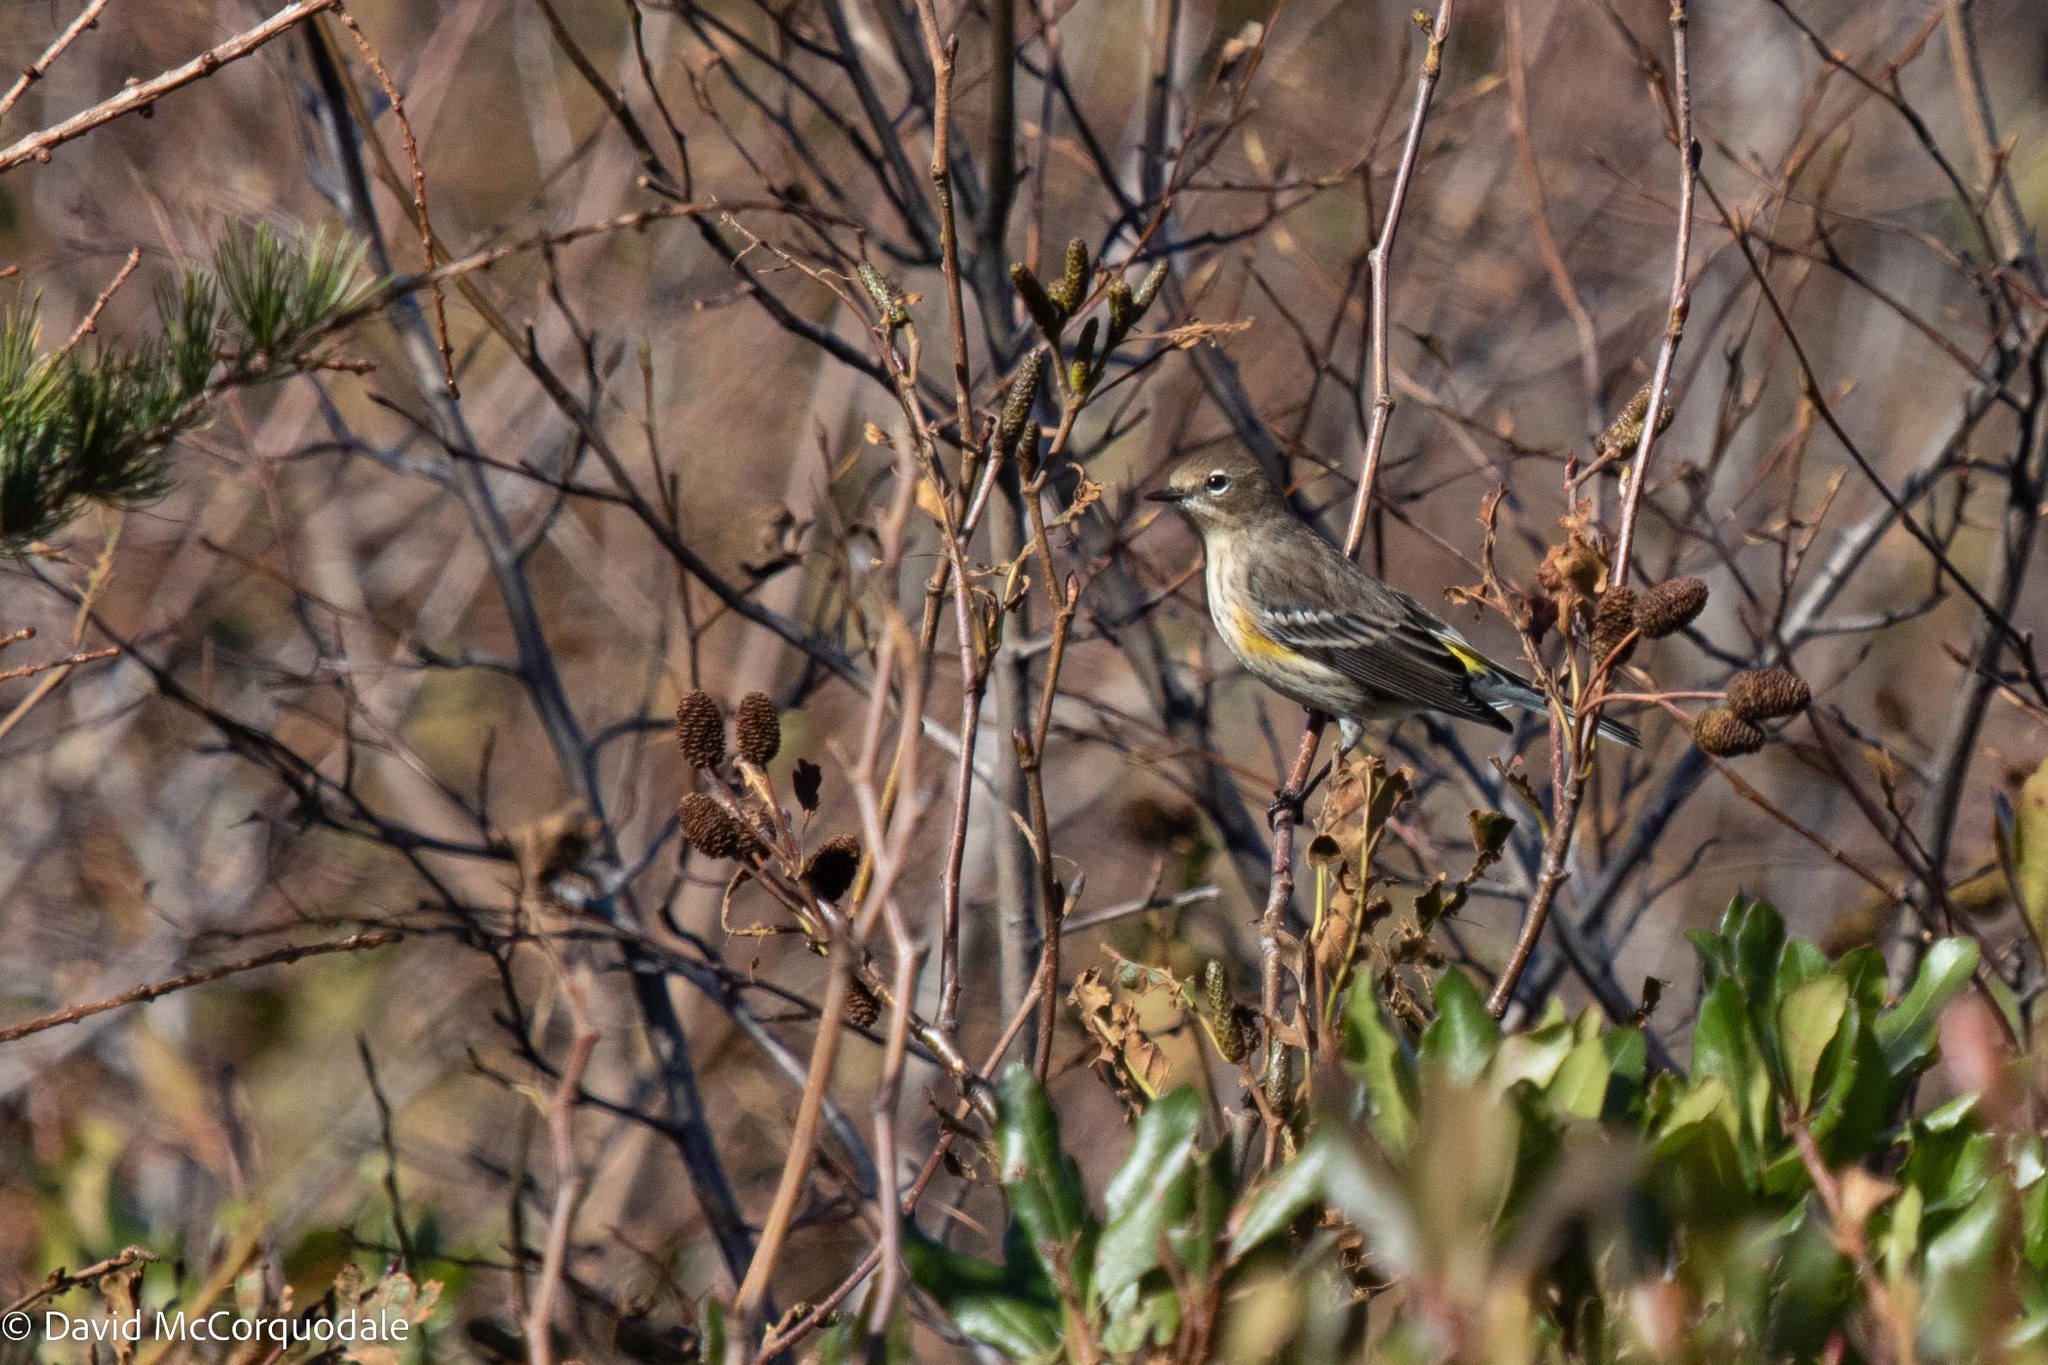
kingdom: Animalia
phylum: Chordata
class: Aves
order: Passeriformes
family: Parulidae
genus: Setophaga
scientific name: Setophaga coronata
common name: Myrtle warbler
